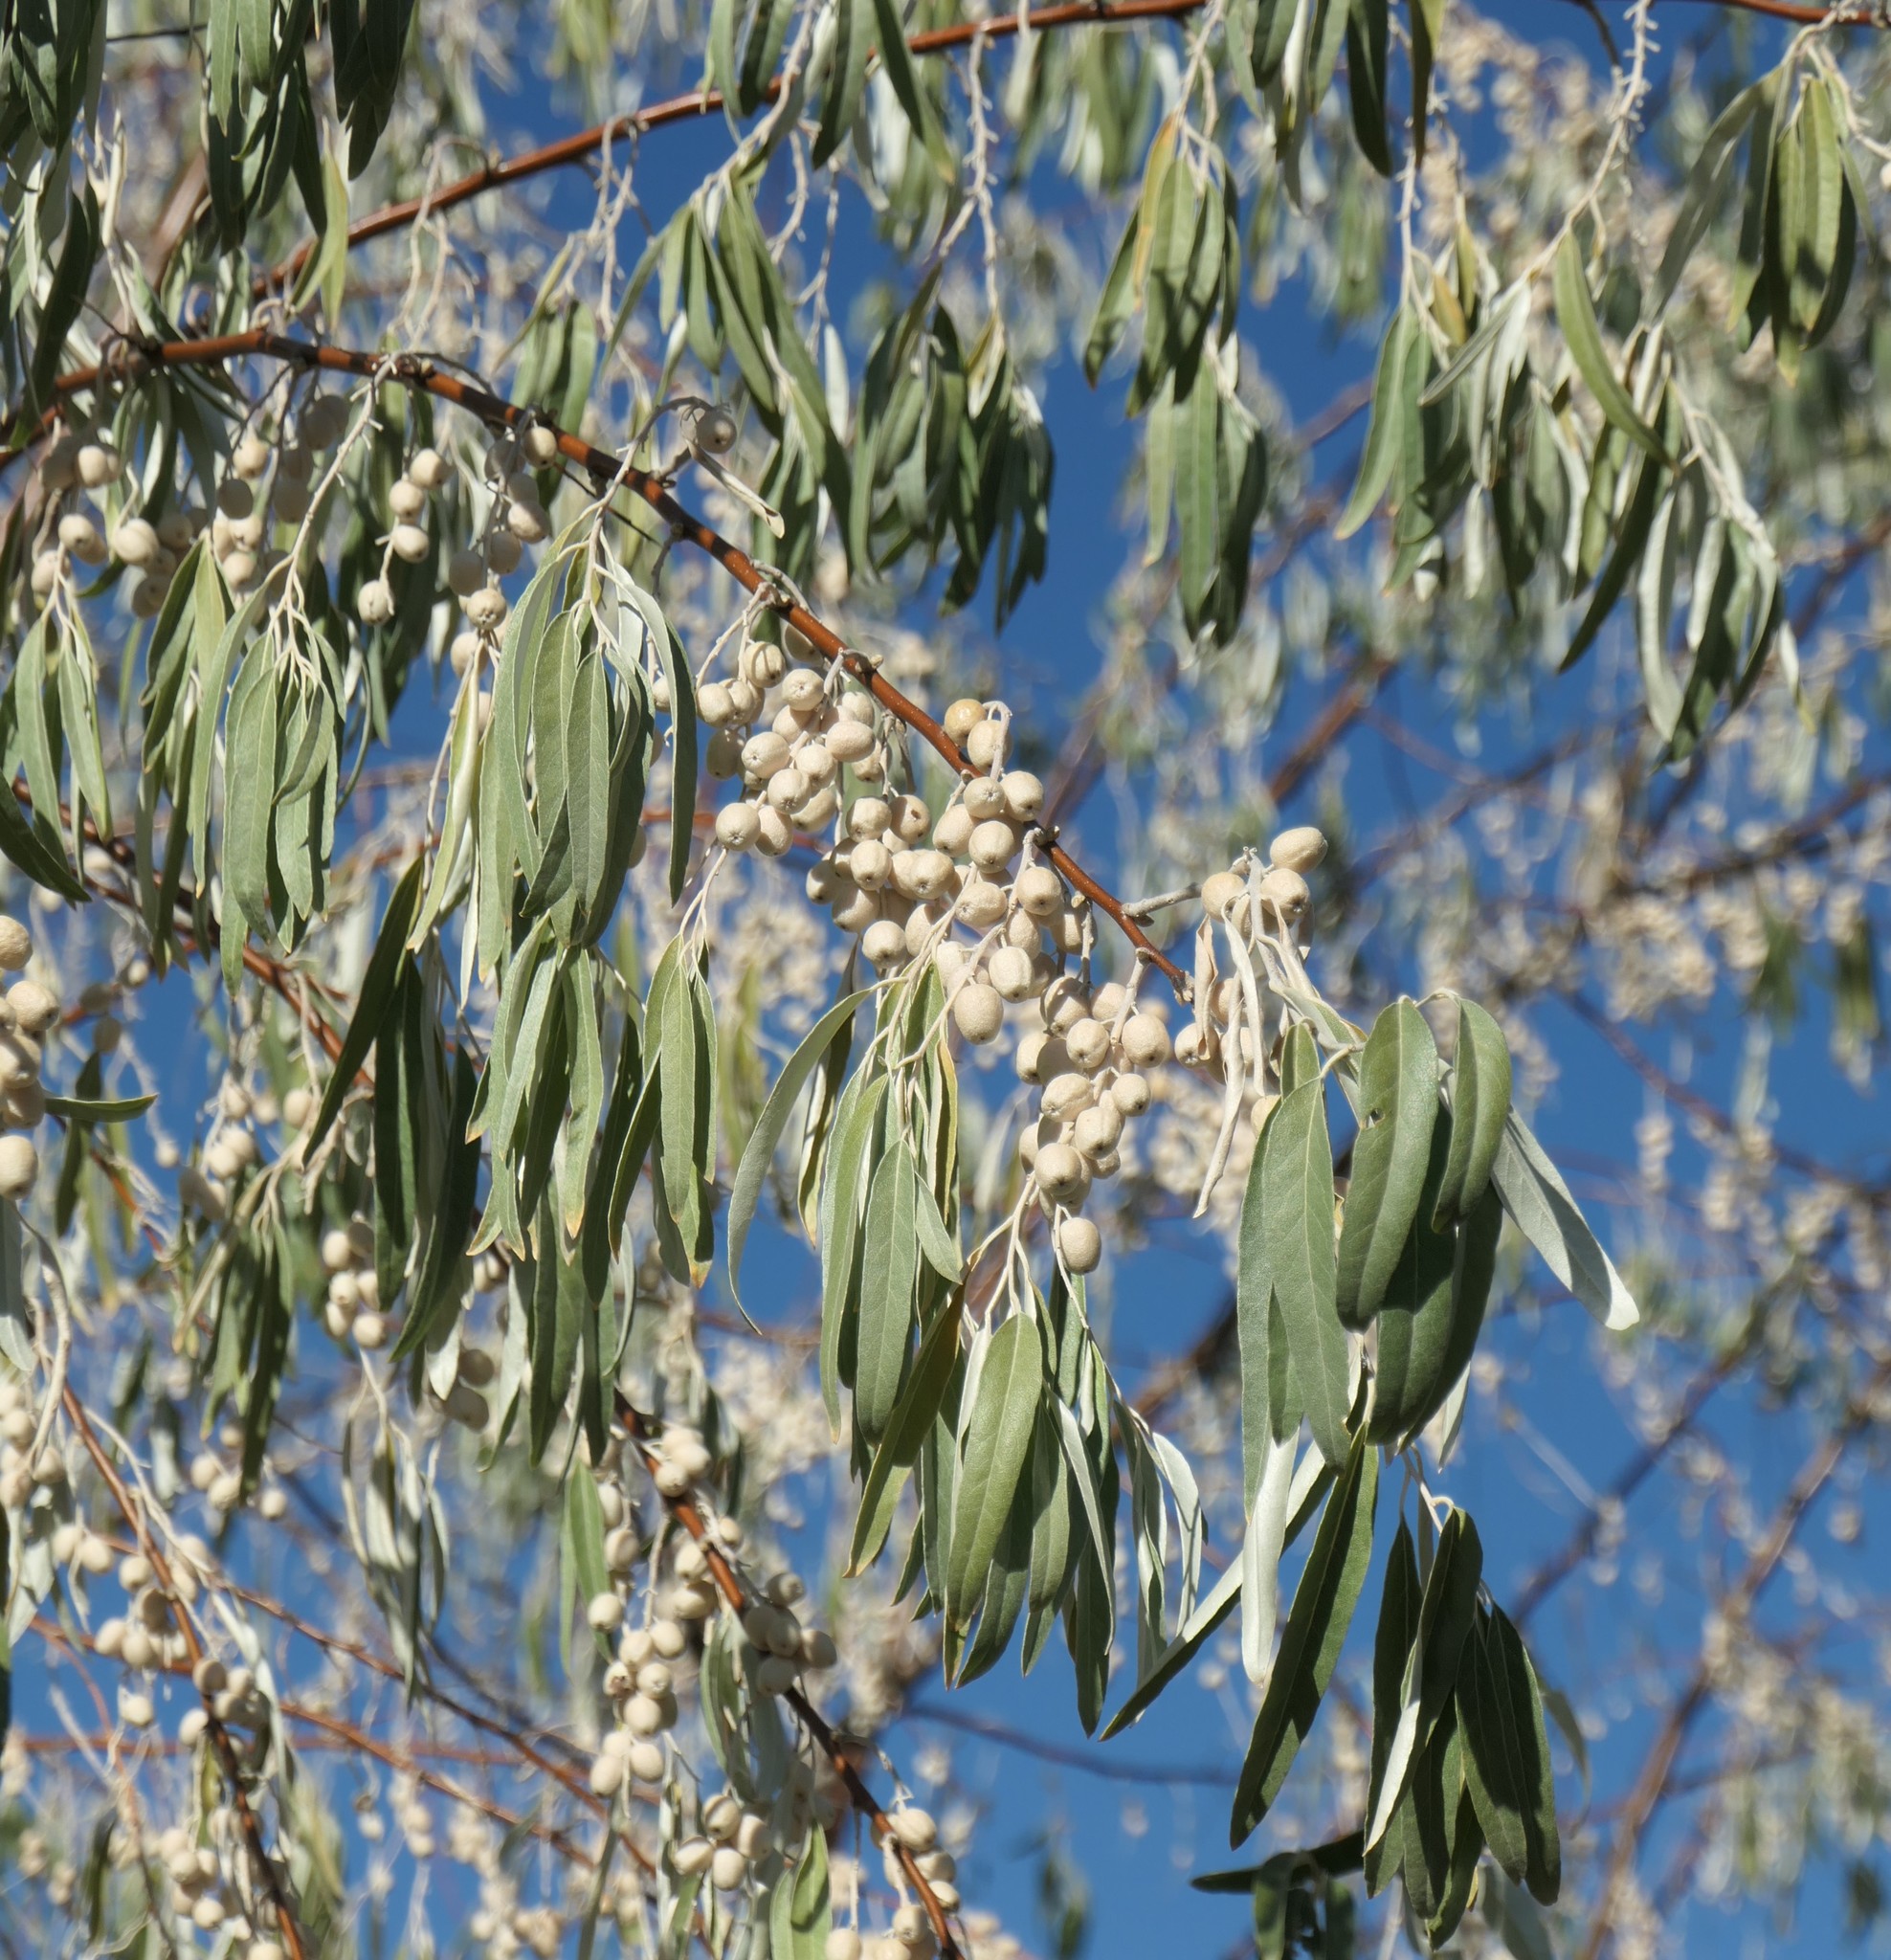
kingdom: Plantae
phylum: Tracheophyta
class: Magnoliopsida
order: Rosales
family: Elaeagnaceae
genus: Elaeagnus
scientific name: Elaeagnus angustifolia
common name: Russian olive
